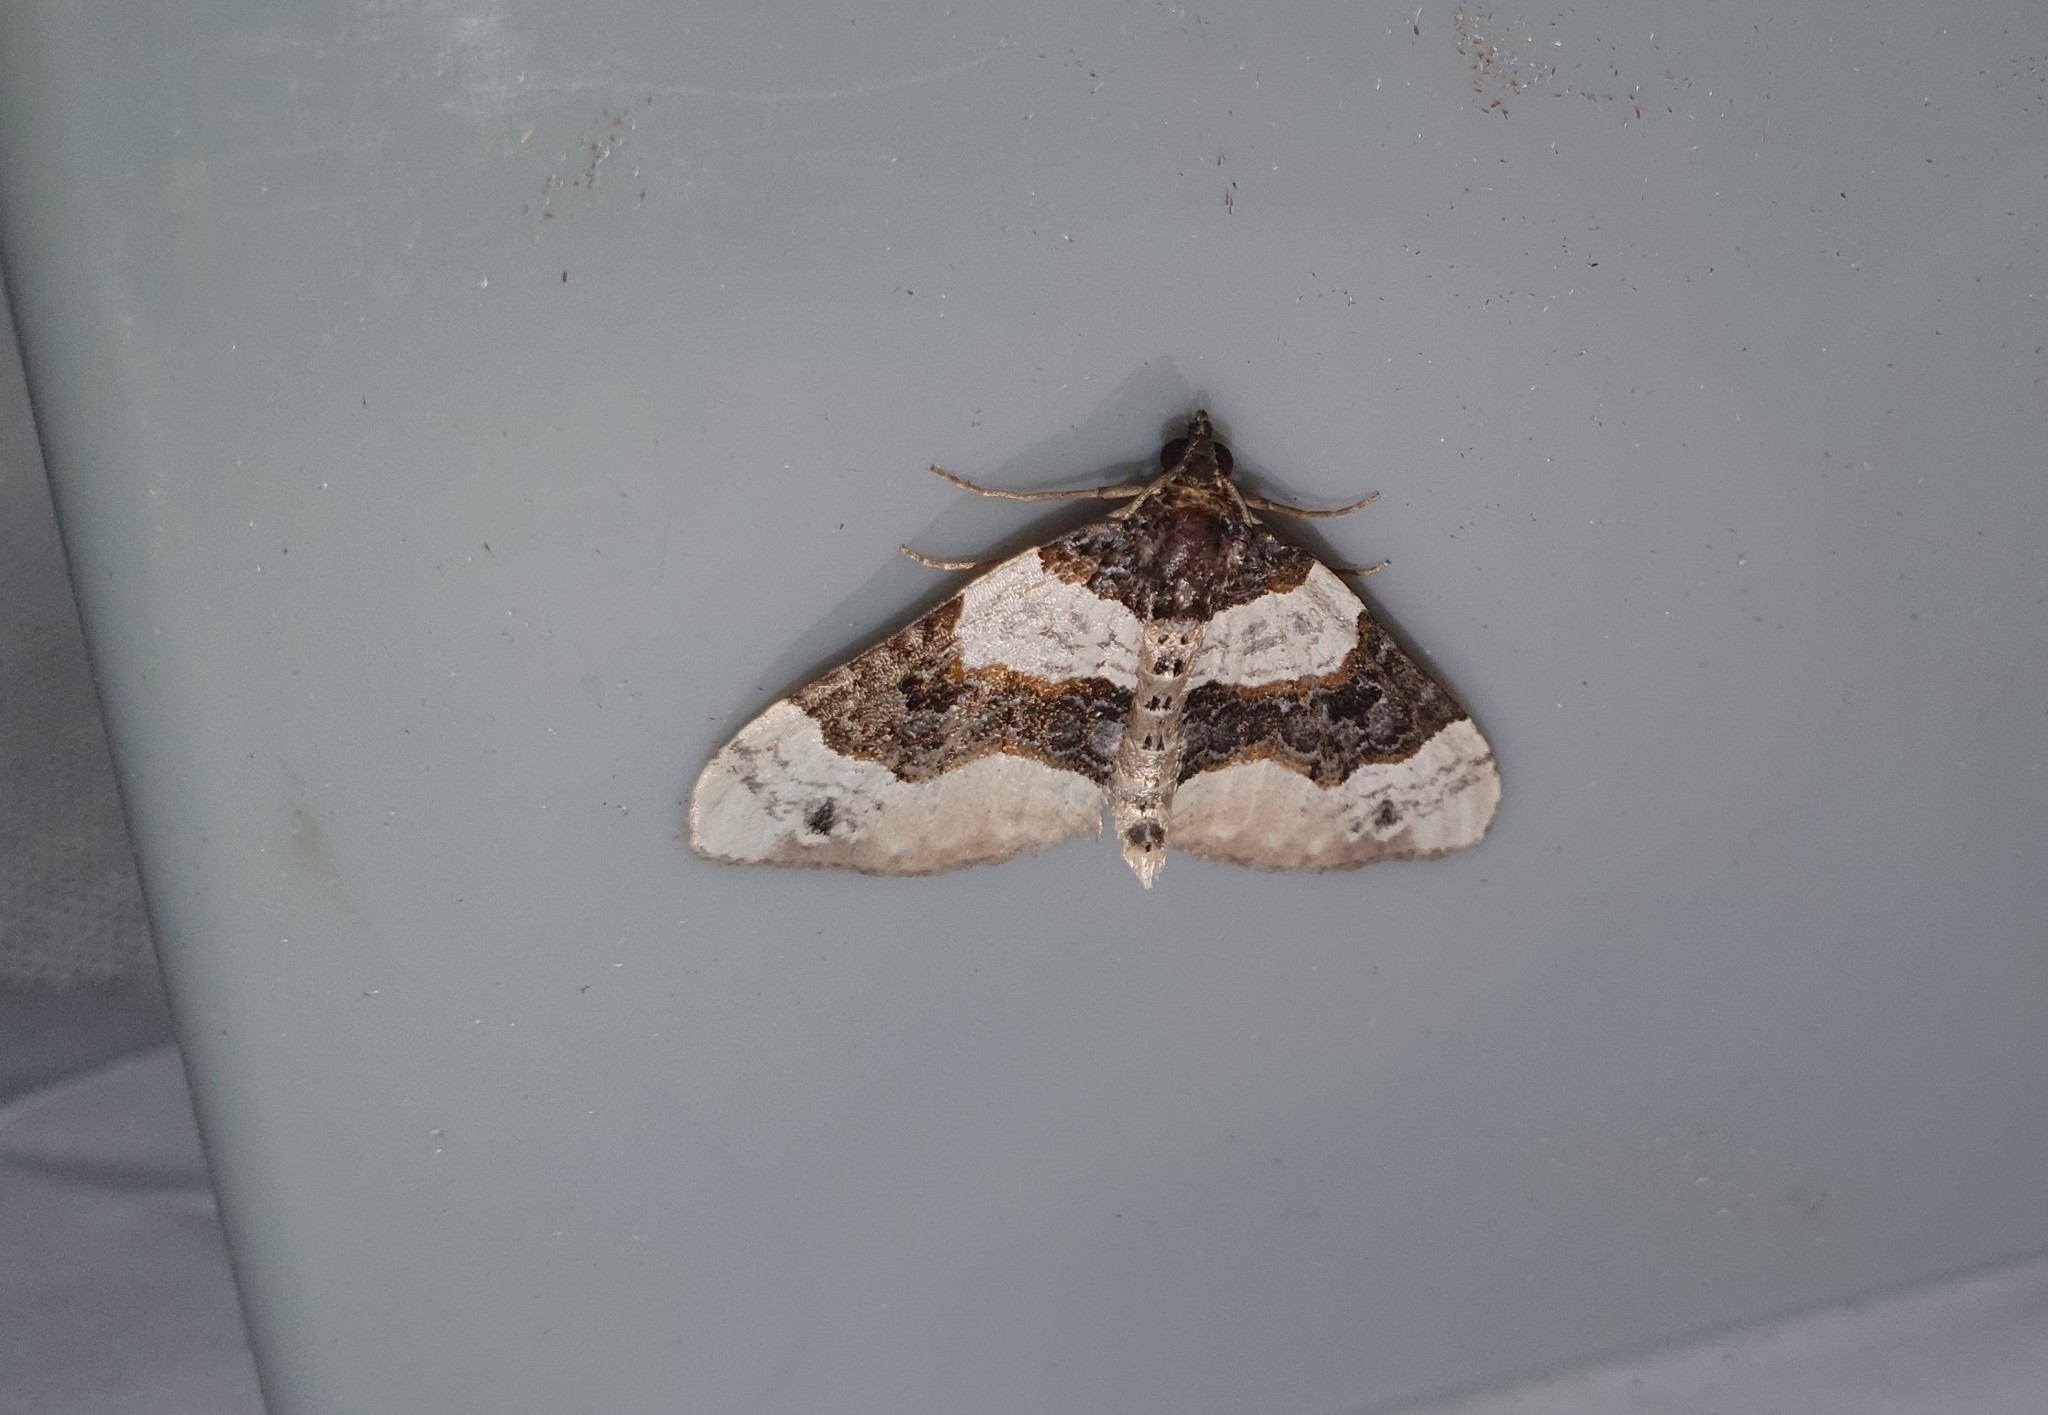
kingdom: Animalia
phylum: Arthropoda
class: Insecta
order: Lepidoptera
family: Geometridae
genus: Cosmorhoe
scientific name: Cosmorhoe ocellata
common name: Purple bar
